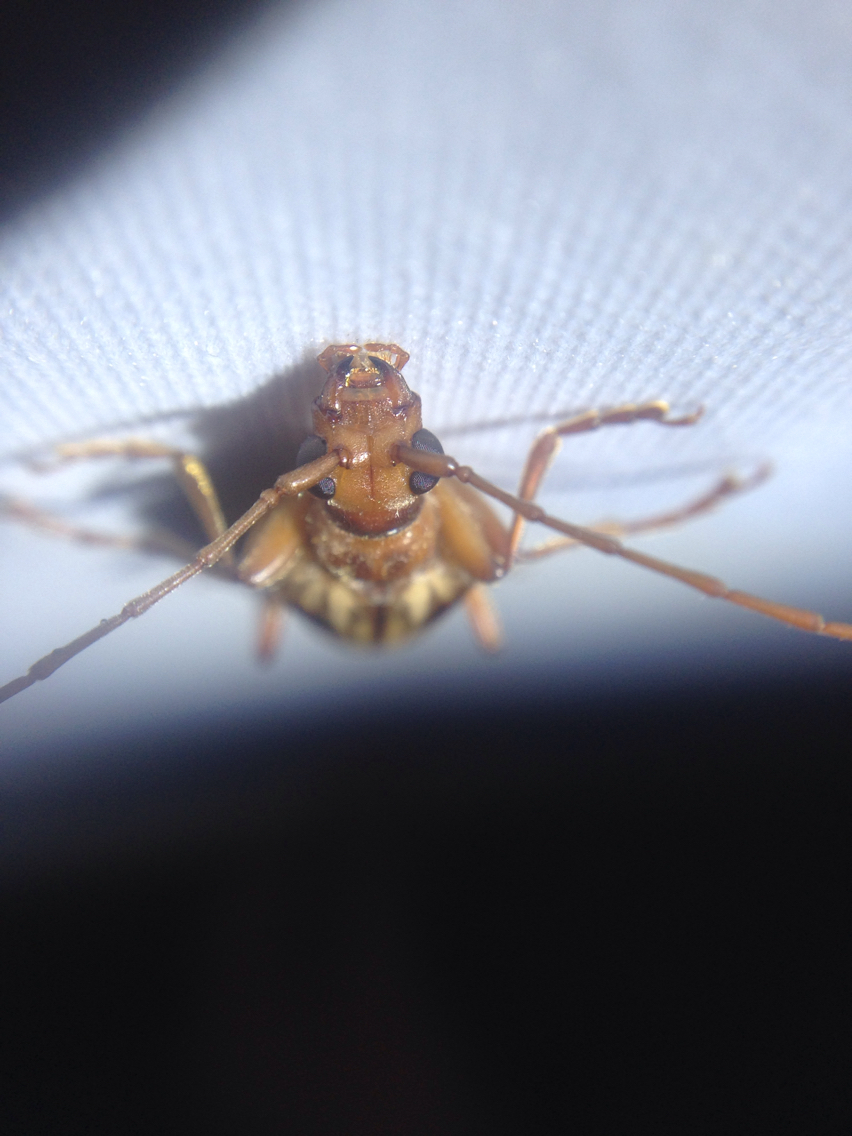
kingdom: Animalia
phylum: Arthropoda
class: Insecta
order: Coleoptera
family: Cerambycidae
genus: Ortholeptura
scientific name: Ortholeptura insignis
